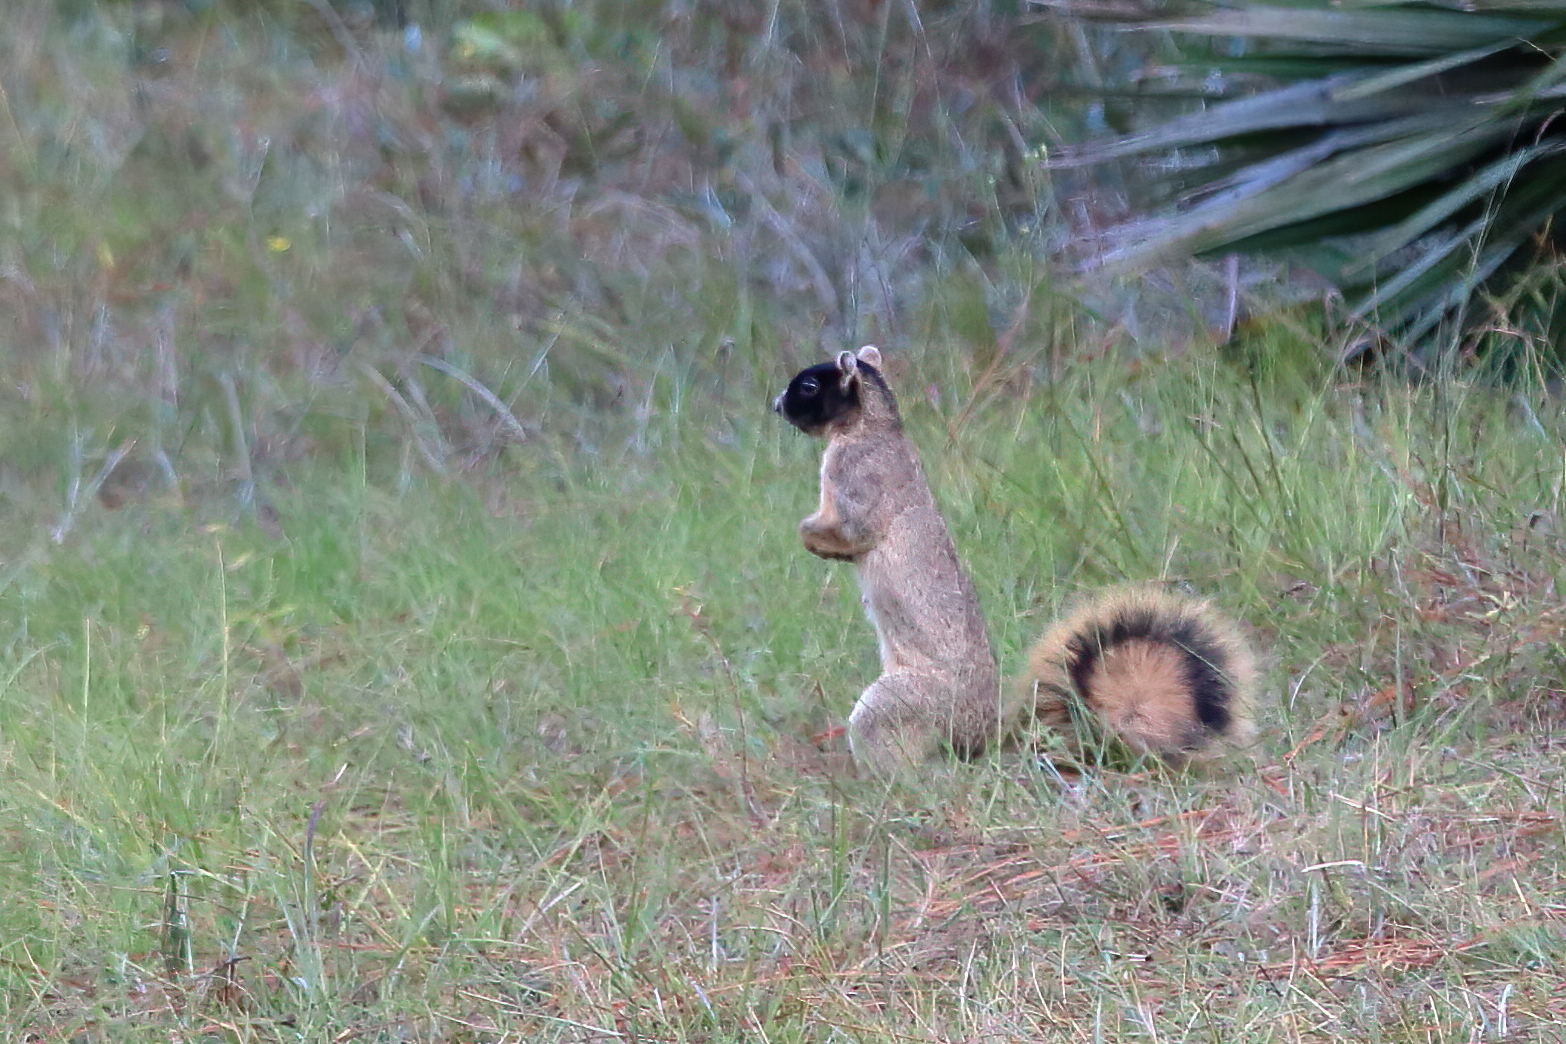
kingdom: Animalia
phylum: Chordata
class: Mammalia
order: Rodentia
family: Sciuridae
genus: Sciurus
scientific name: Sciurus niger
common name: Fox squirrel
